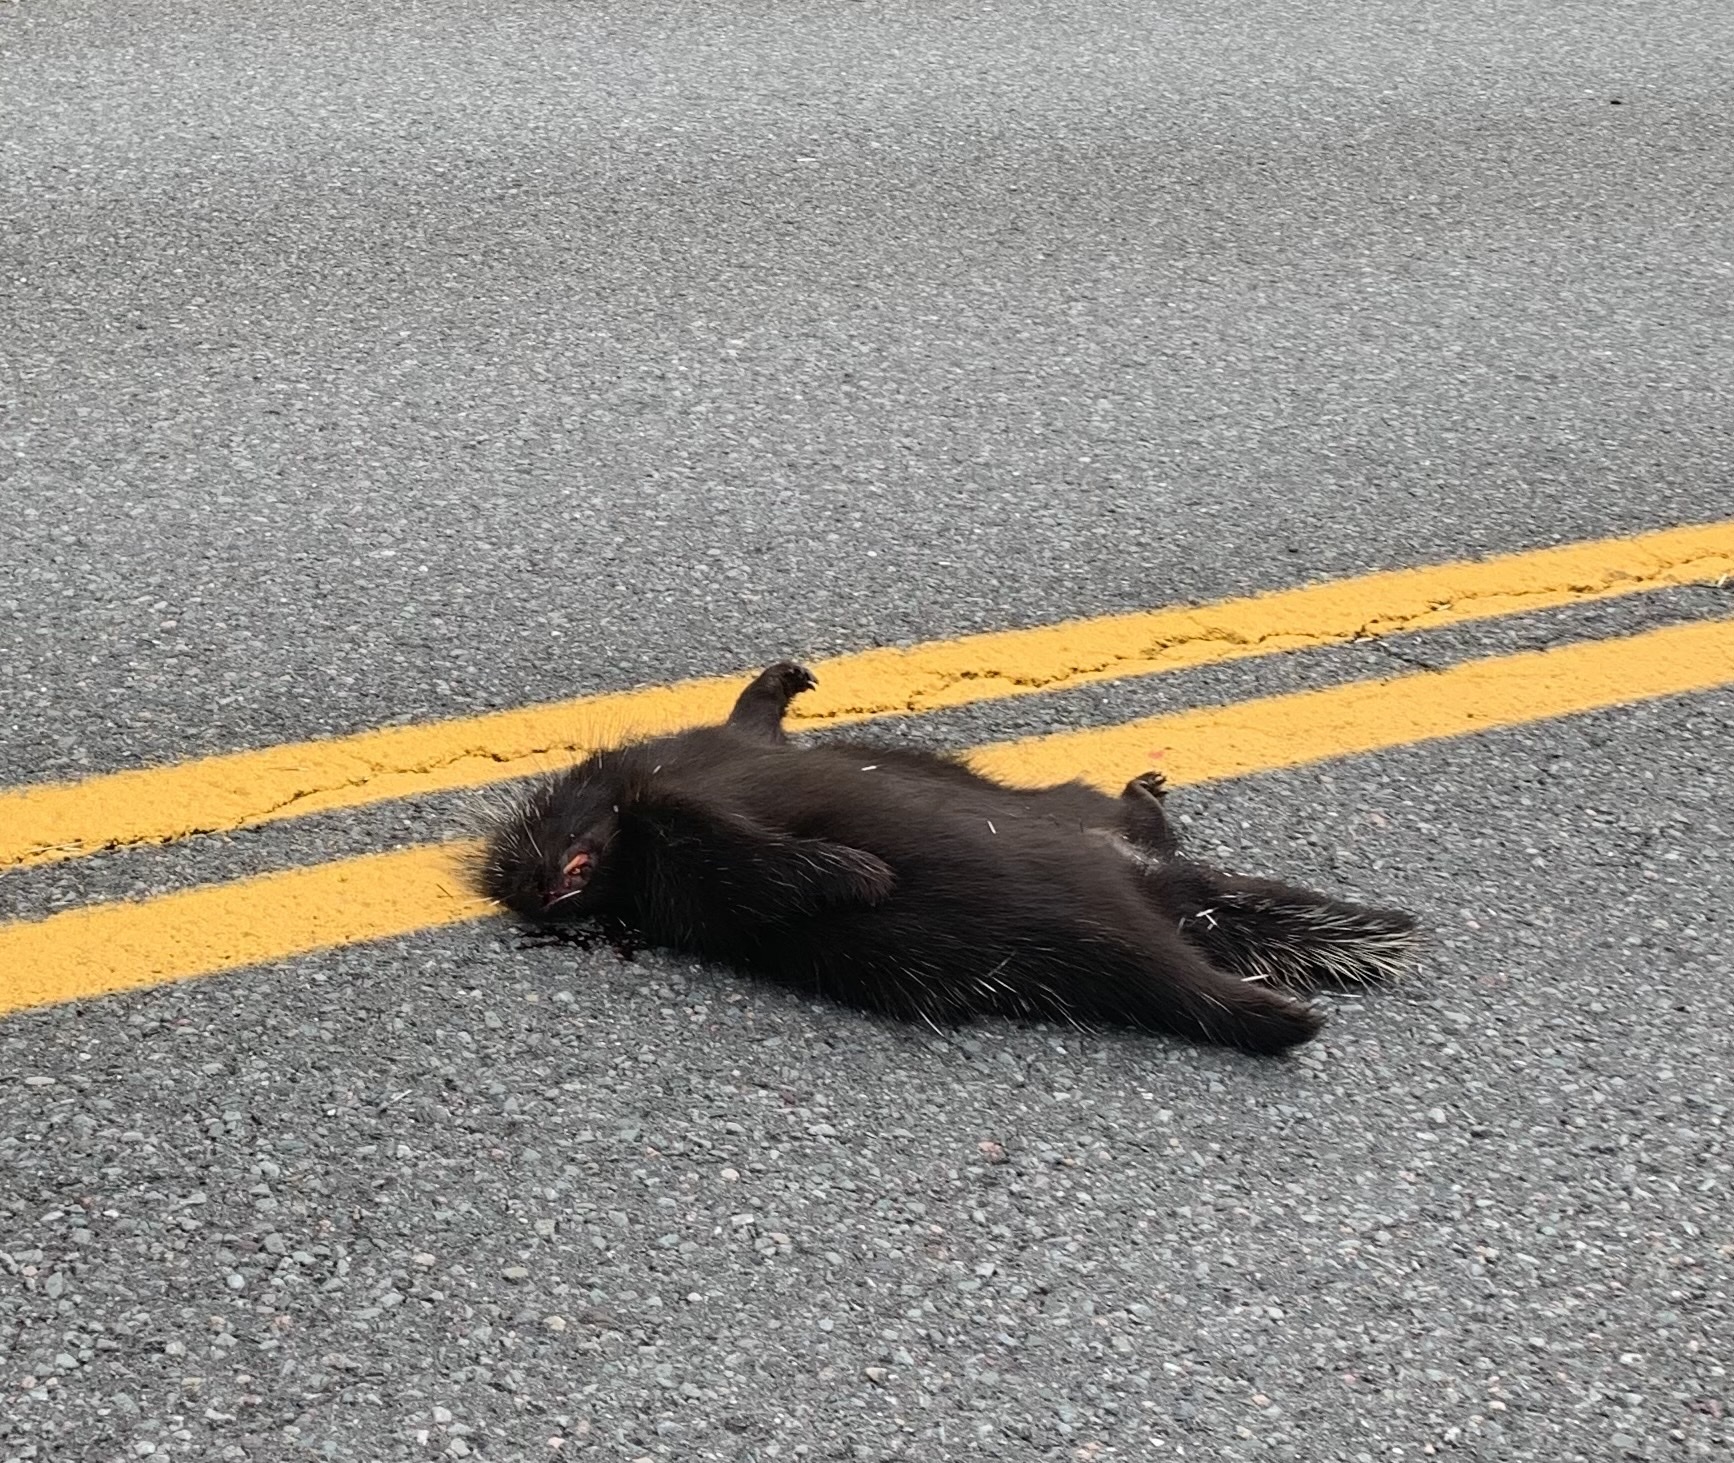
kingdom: Animalia
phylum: Chordata
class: Mammalia
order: Rodentia
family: Erethizontidae
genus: Erethizon
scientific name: Erethizon dorsatus
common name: North american porcupine
